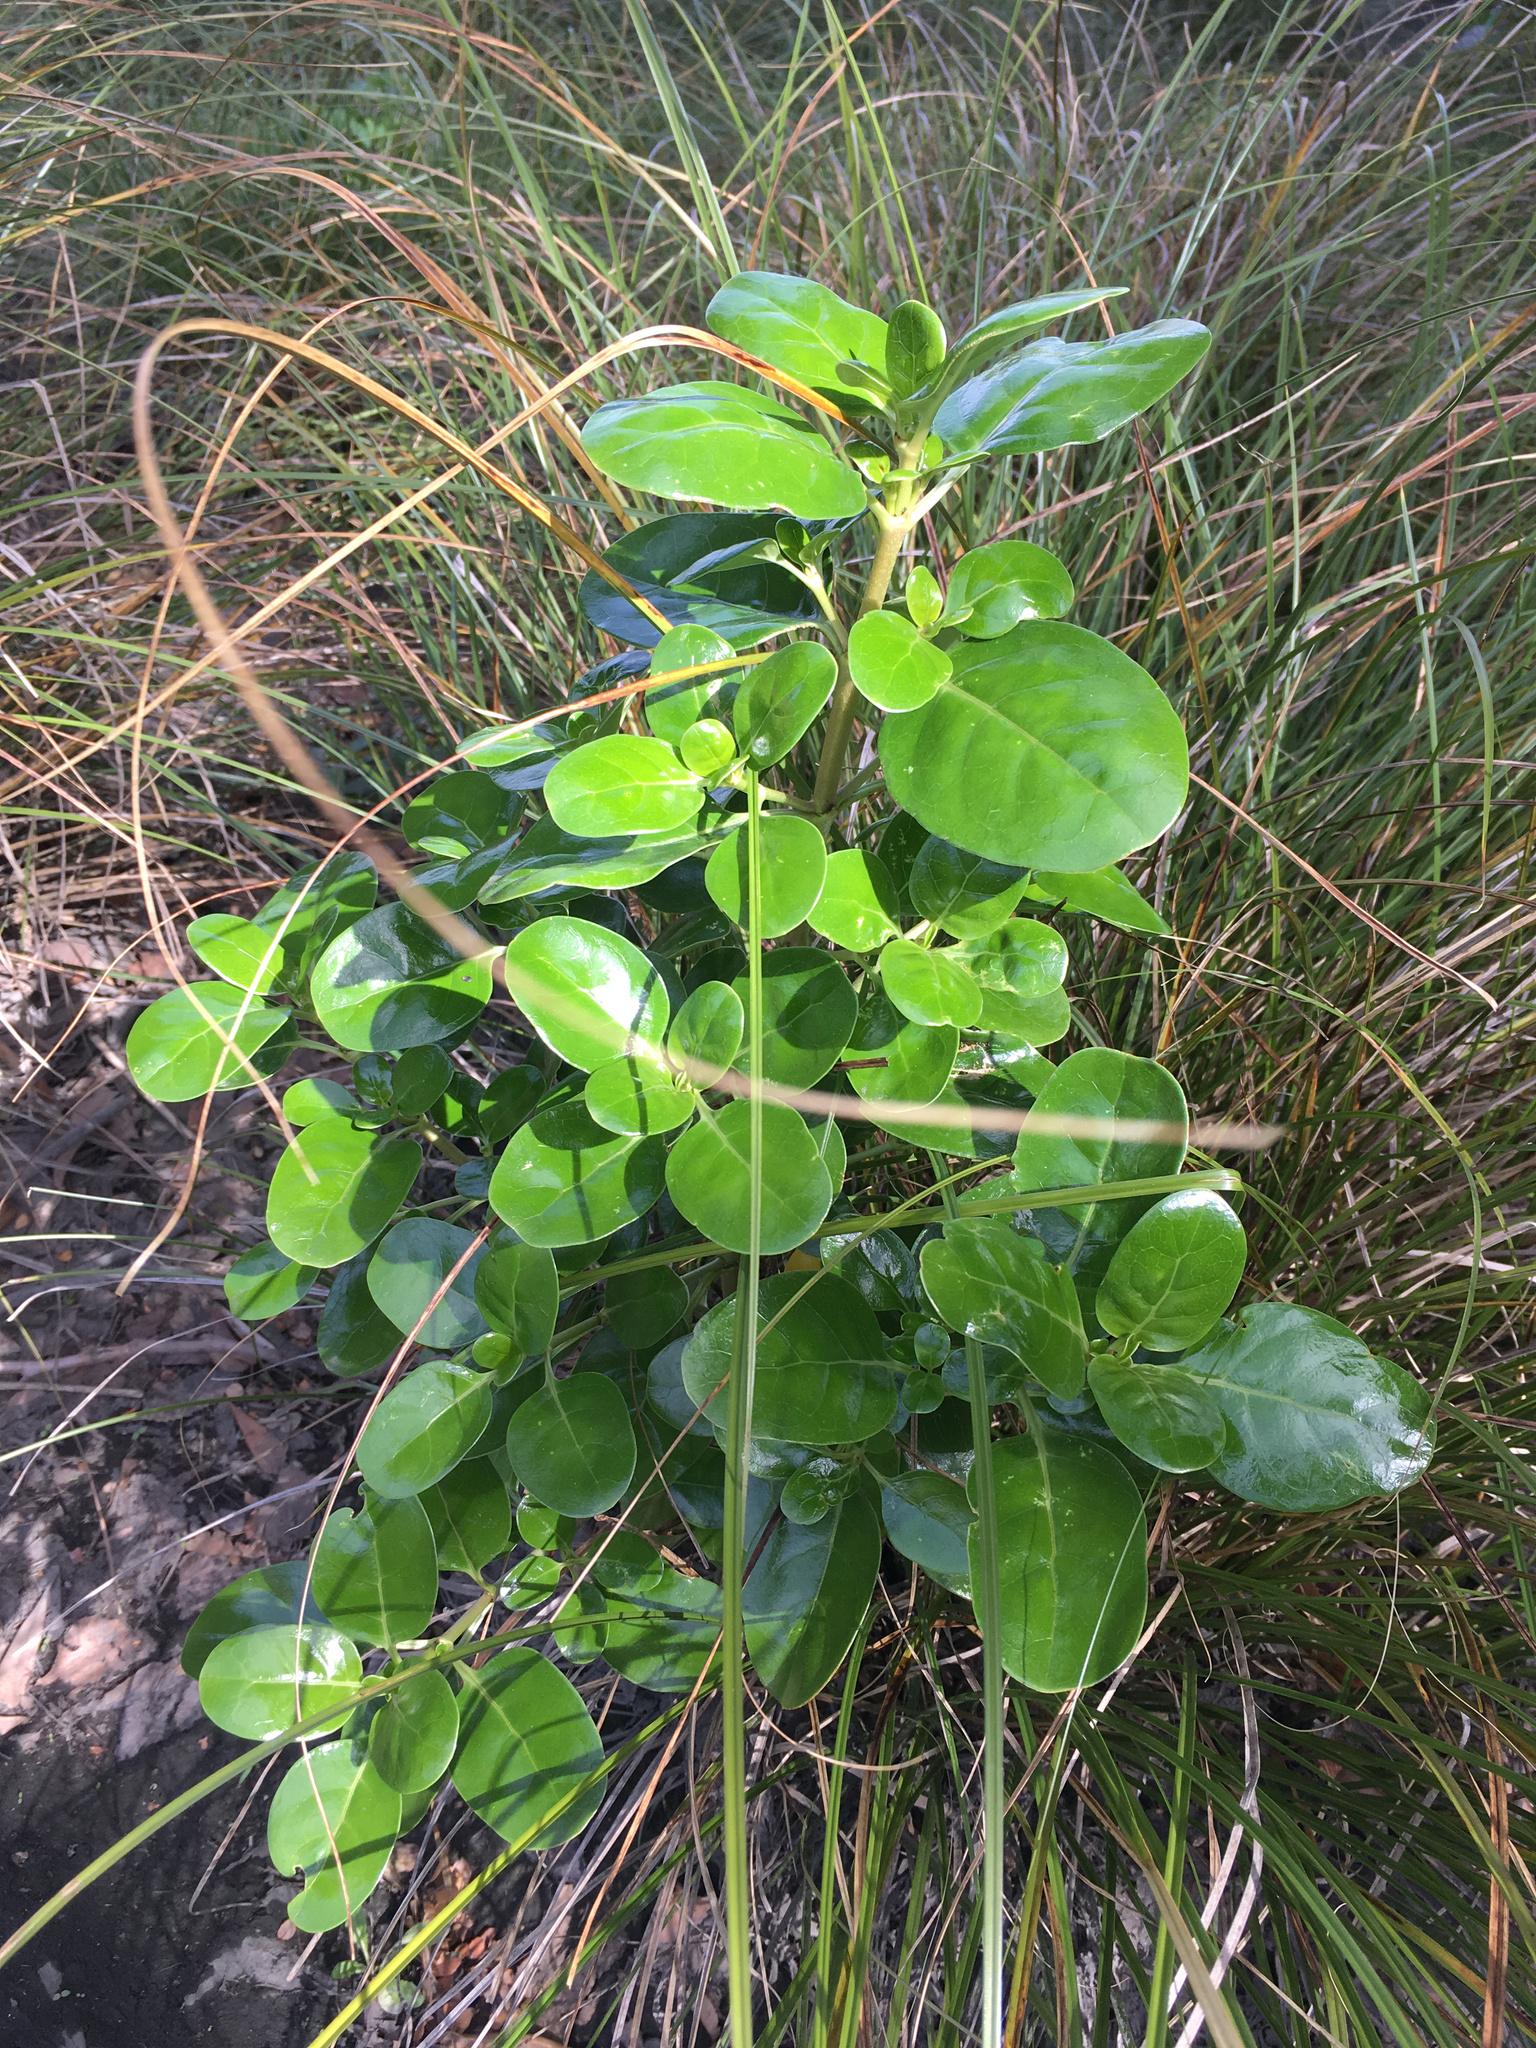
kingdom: Plantae
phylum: Tracheophyta
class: Magnoliopsida
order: Gentianales
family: Rubiaceae
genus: Coprosma
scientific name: Coprosma repens
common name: Tree bedstraw
